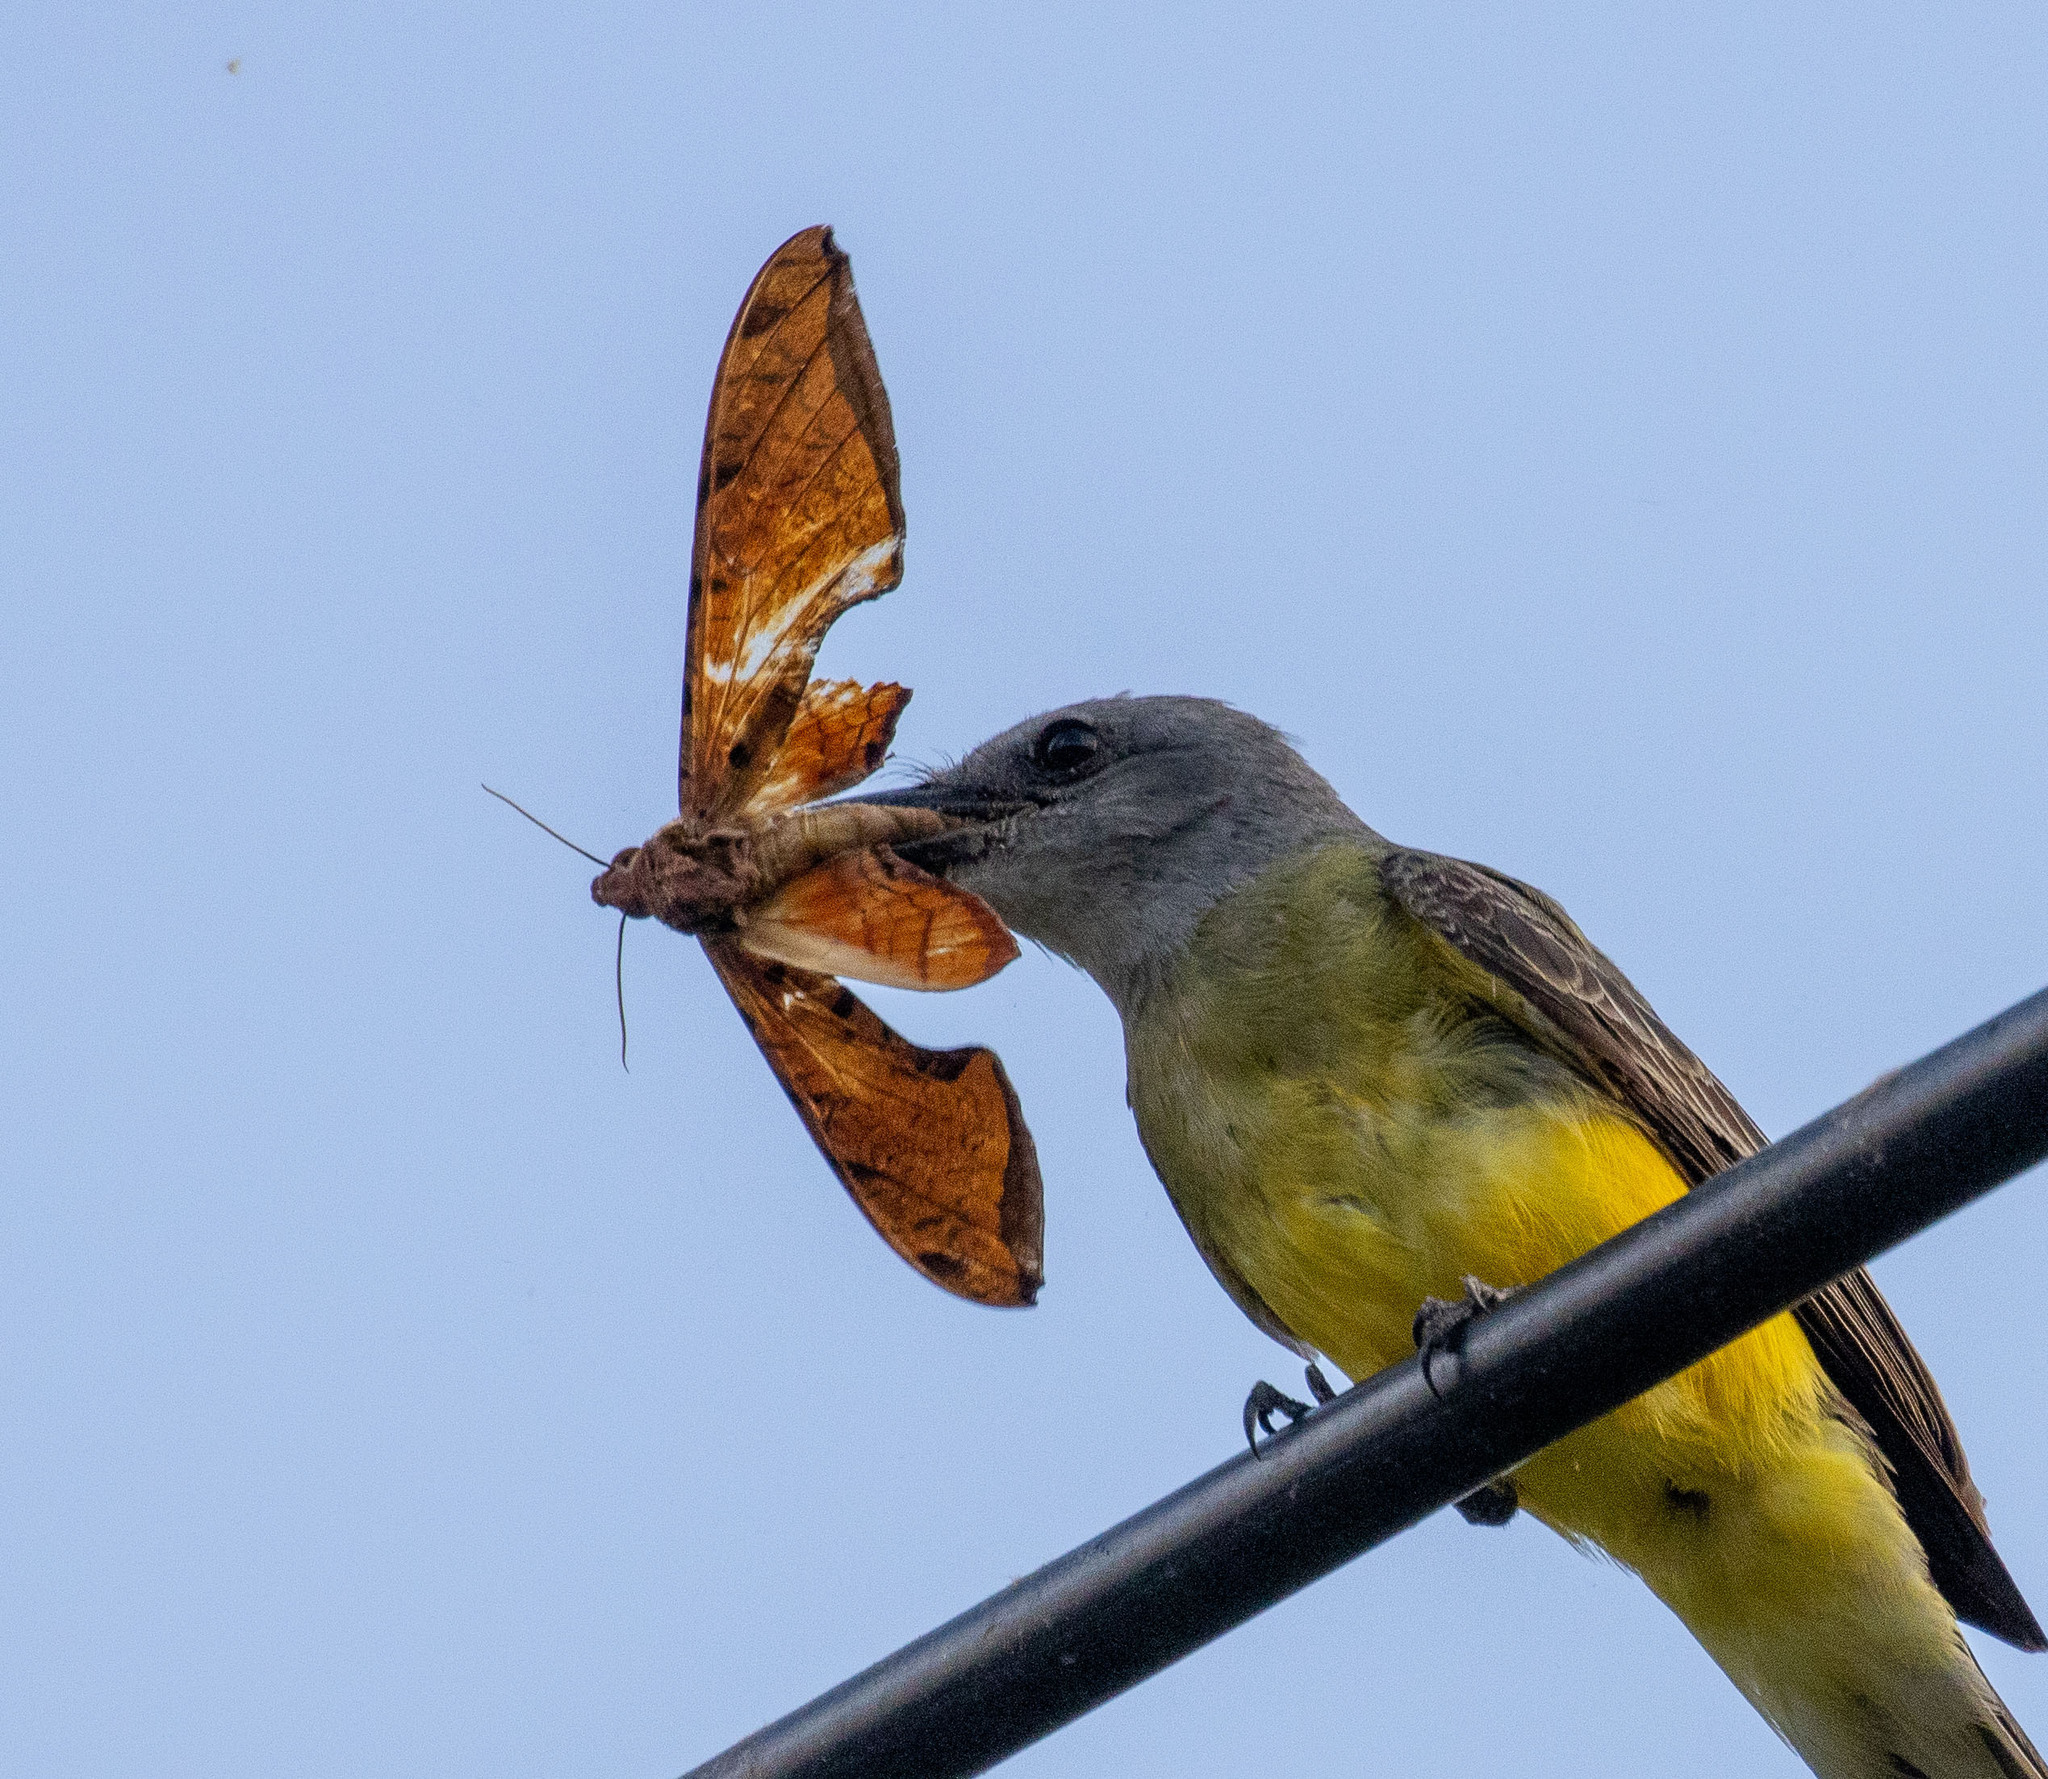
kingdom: Animalia
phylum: Arthropoda
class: Insecta
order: Lepidoptera
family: Sphingidae
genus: Protambulyx
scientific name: Protambulyx strigilis
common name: Streaked sphinx
